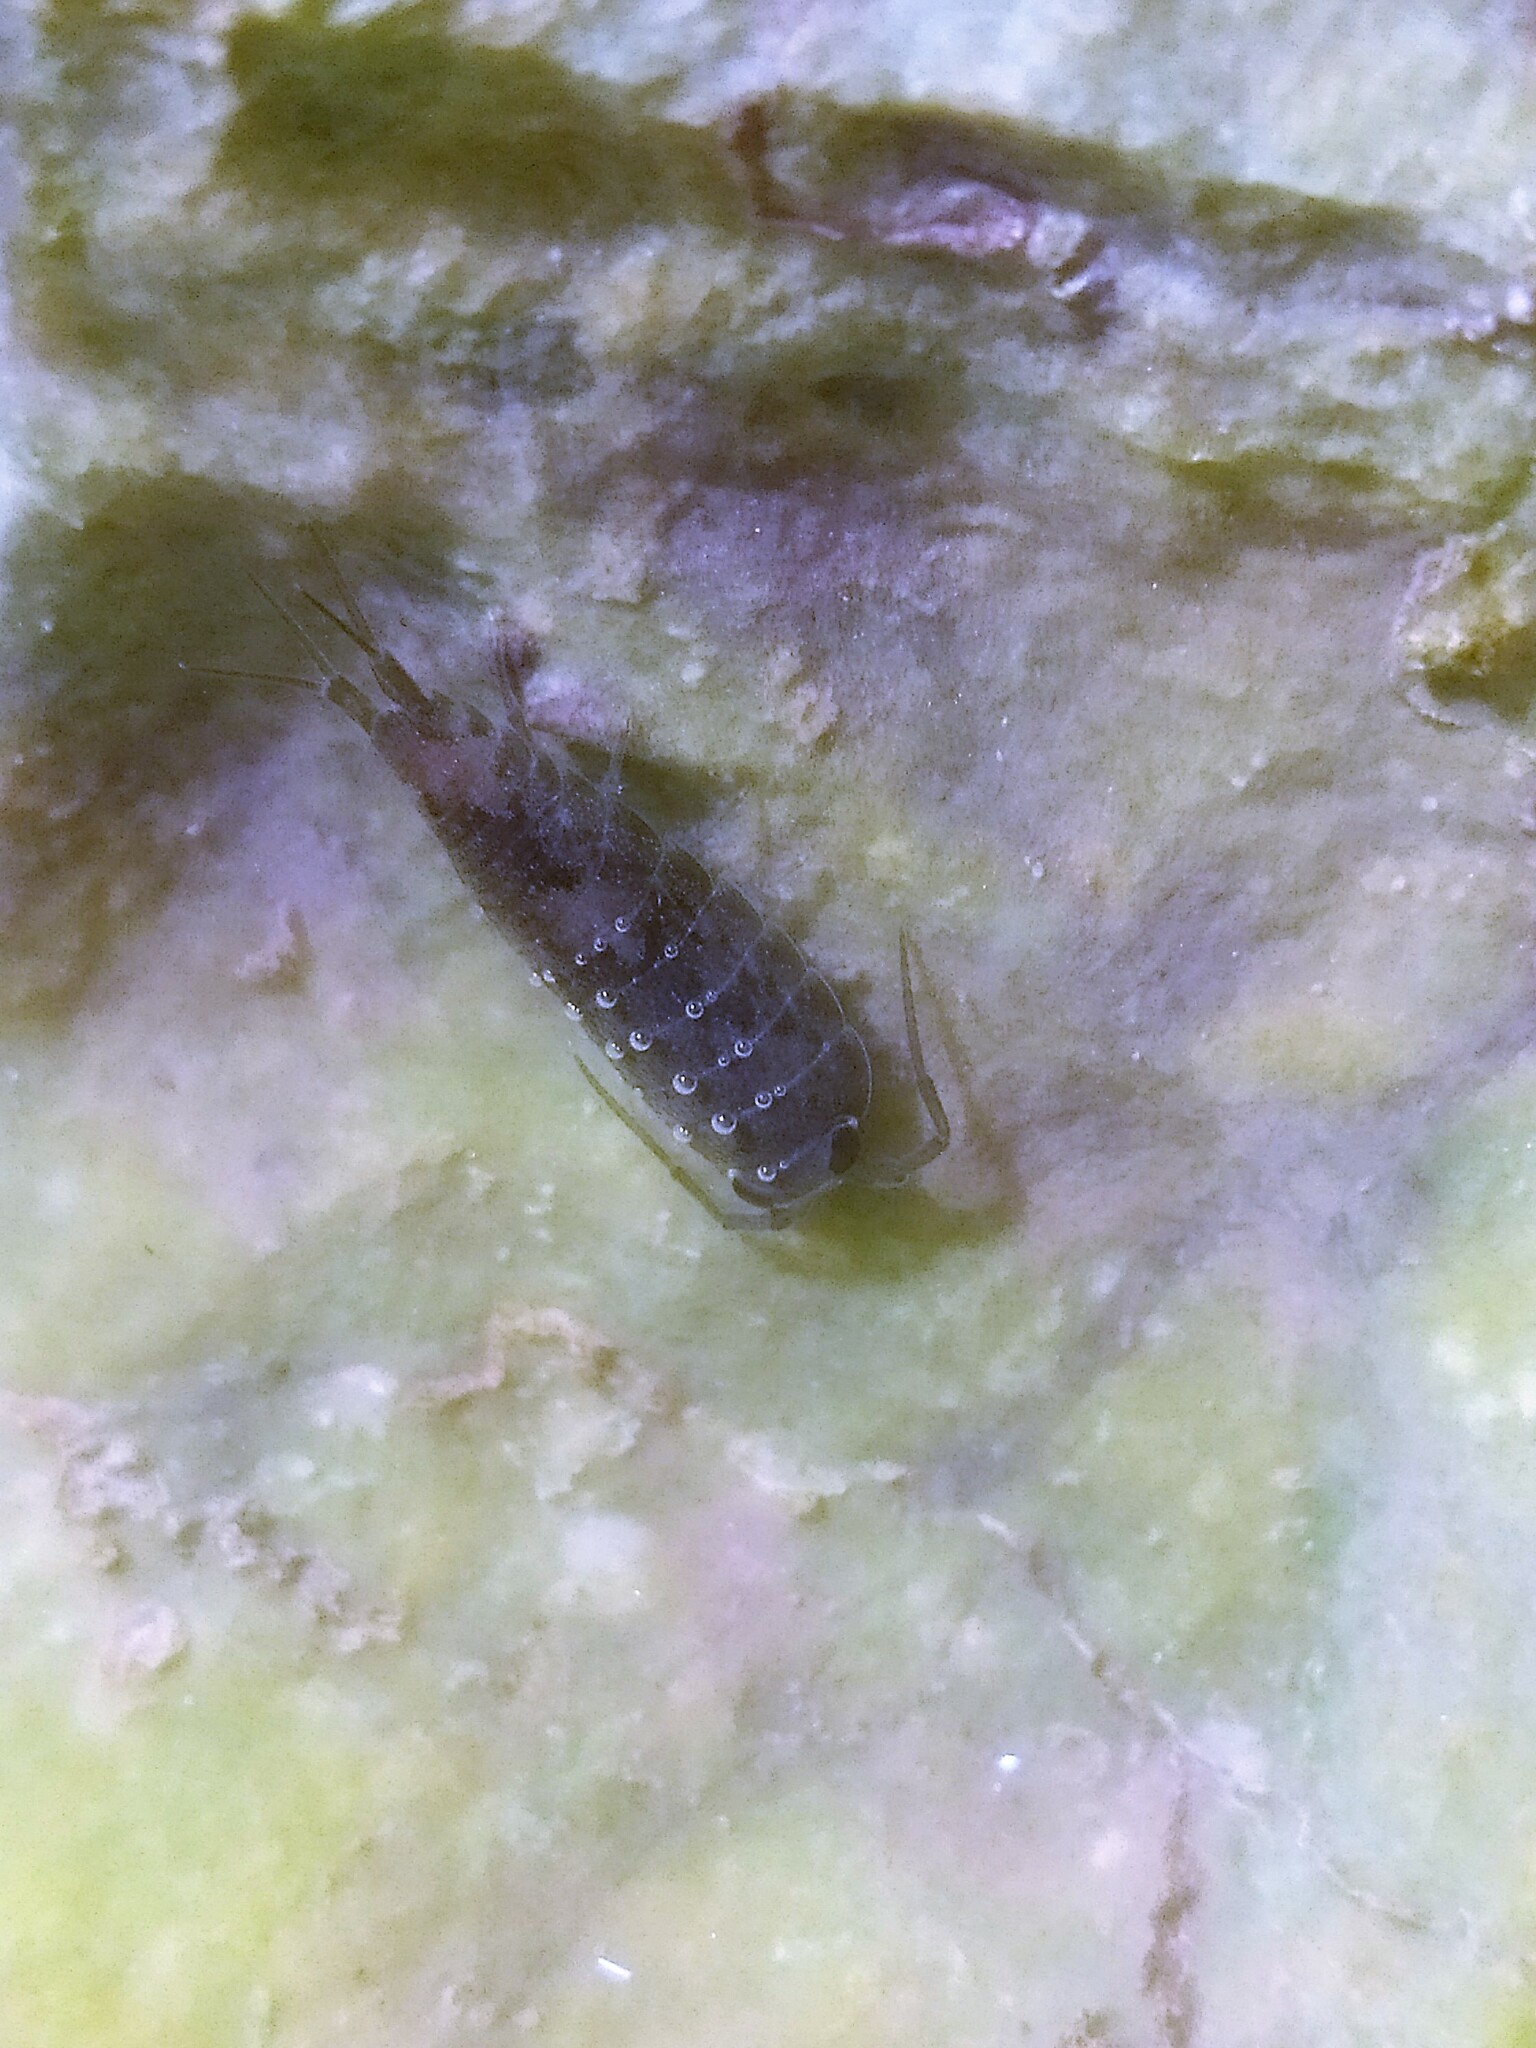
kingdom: Animalia
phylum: Arthropoda
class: Malacostraca
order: Isopoda
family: Ligiidae
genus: Ligia
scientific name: Ligia oceanica
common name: Sea slater
